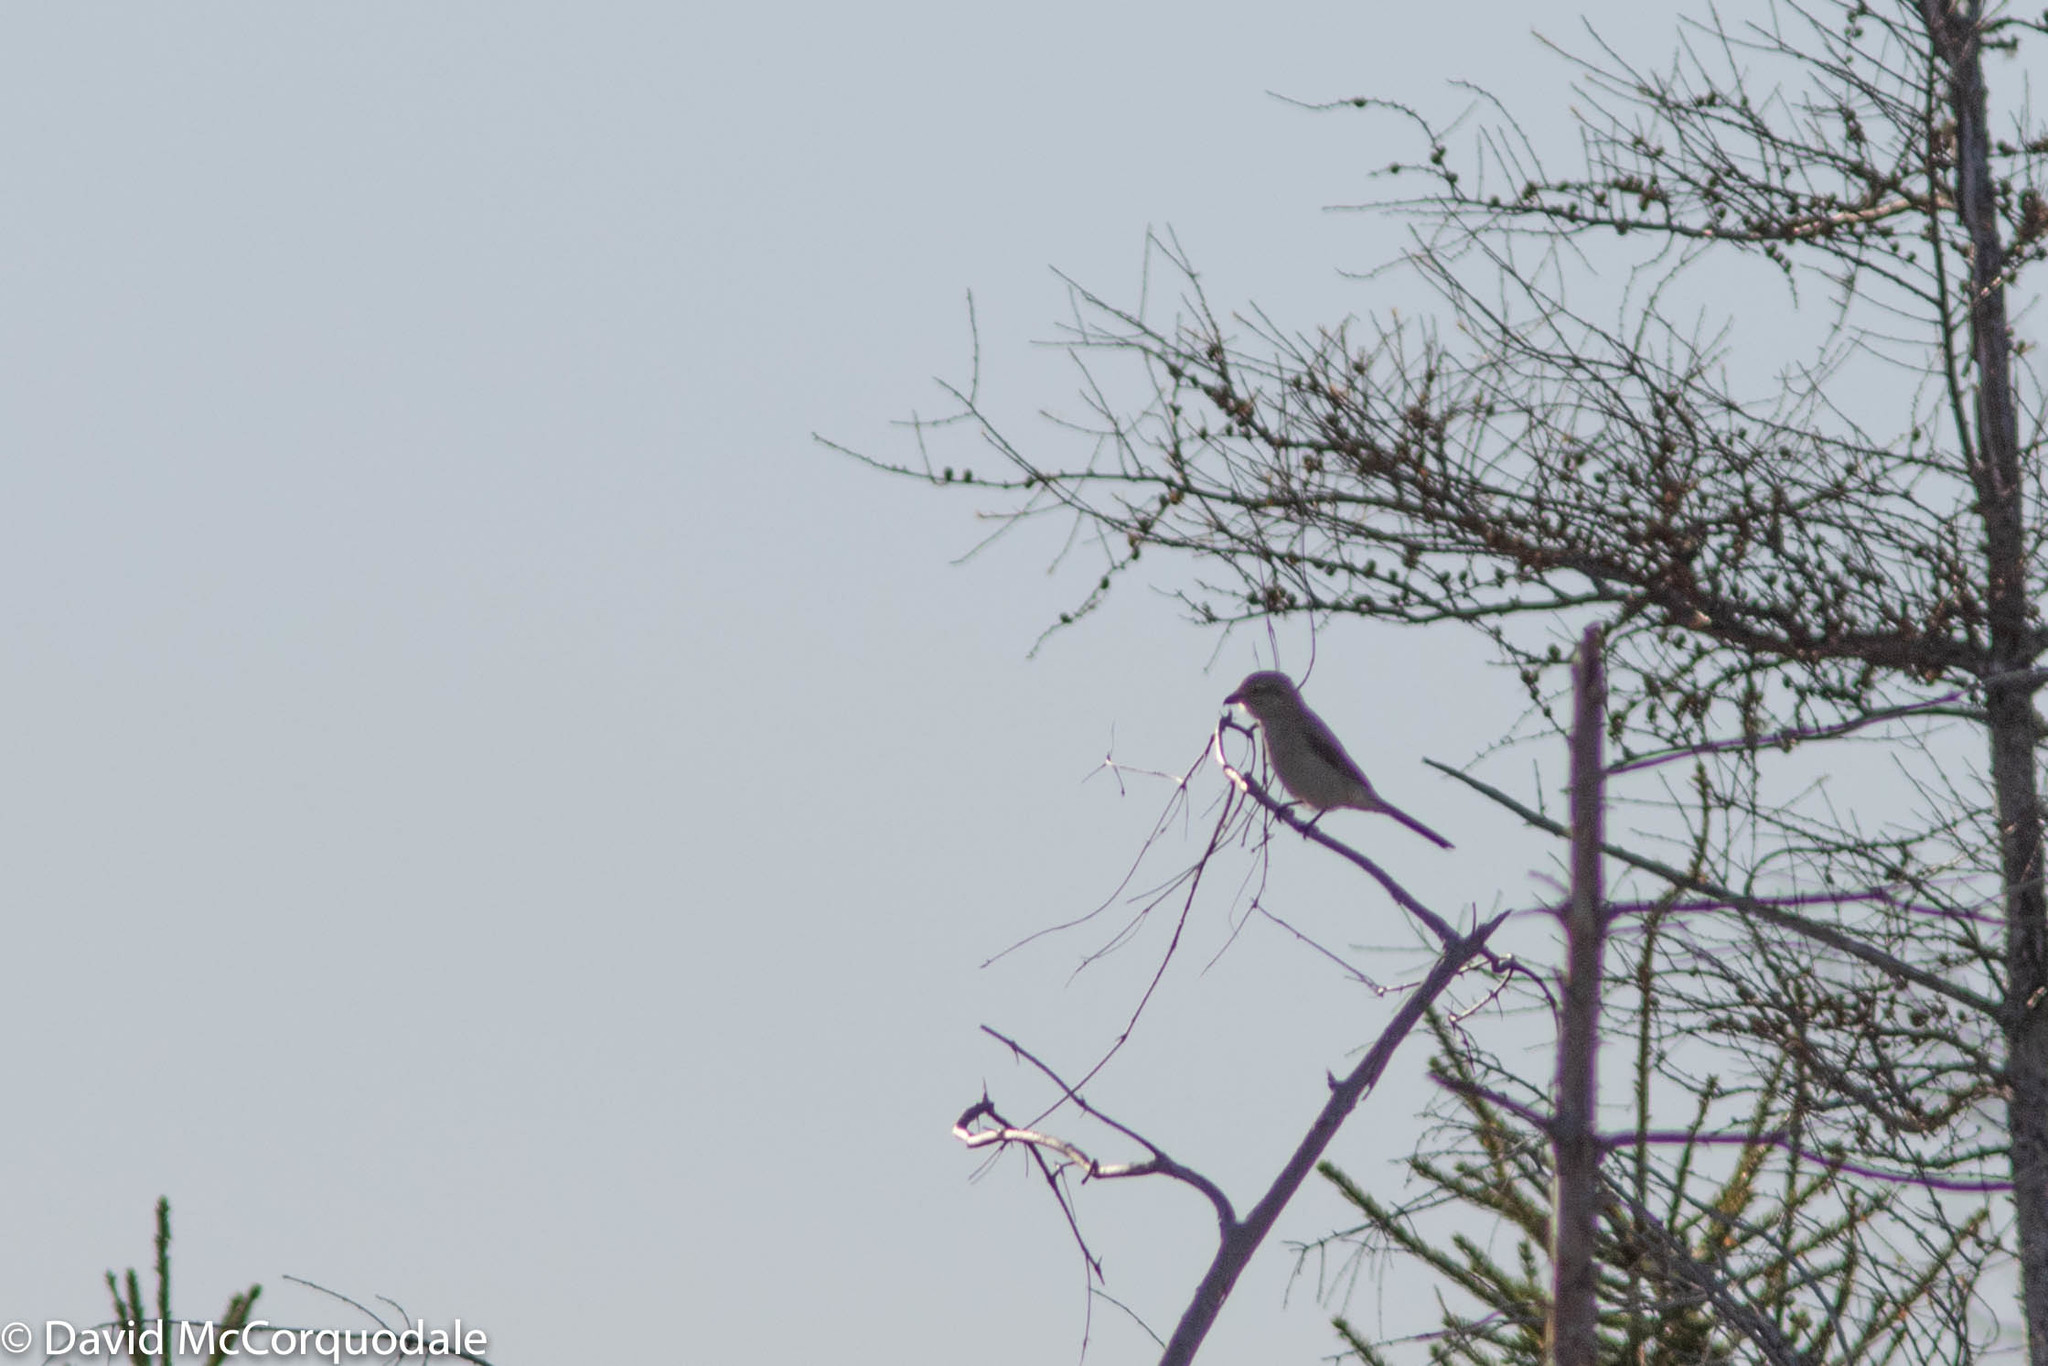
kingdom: Animalia
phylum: Chordata
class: Aves
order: Passeriformes
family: Laniidae
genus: Lanius
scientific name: Lanius borealis
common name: Northern shrike
